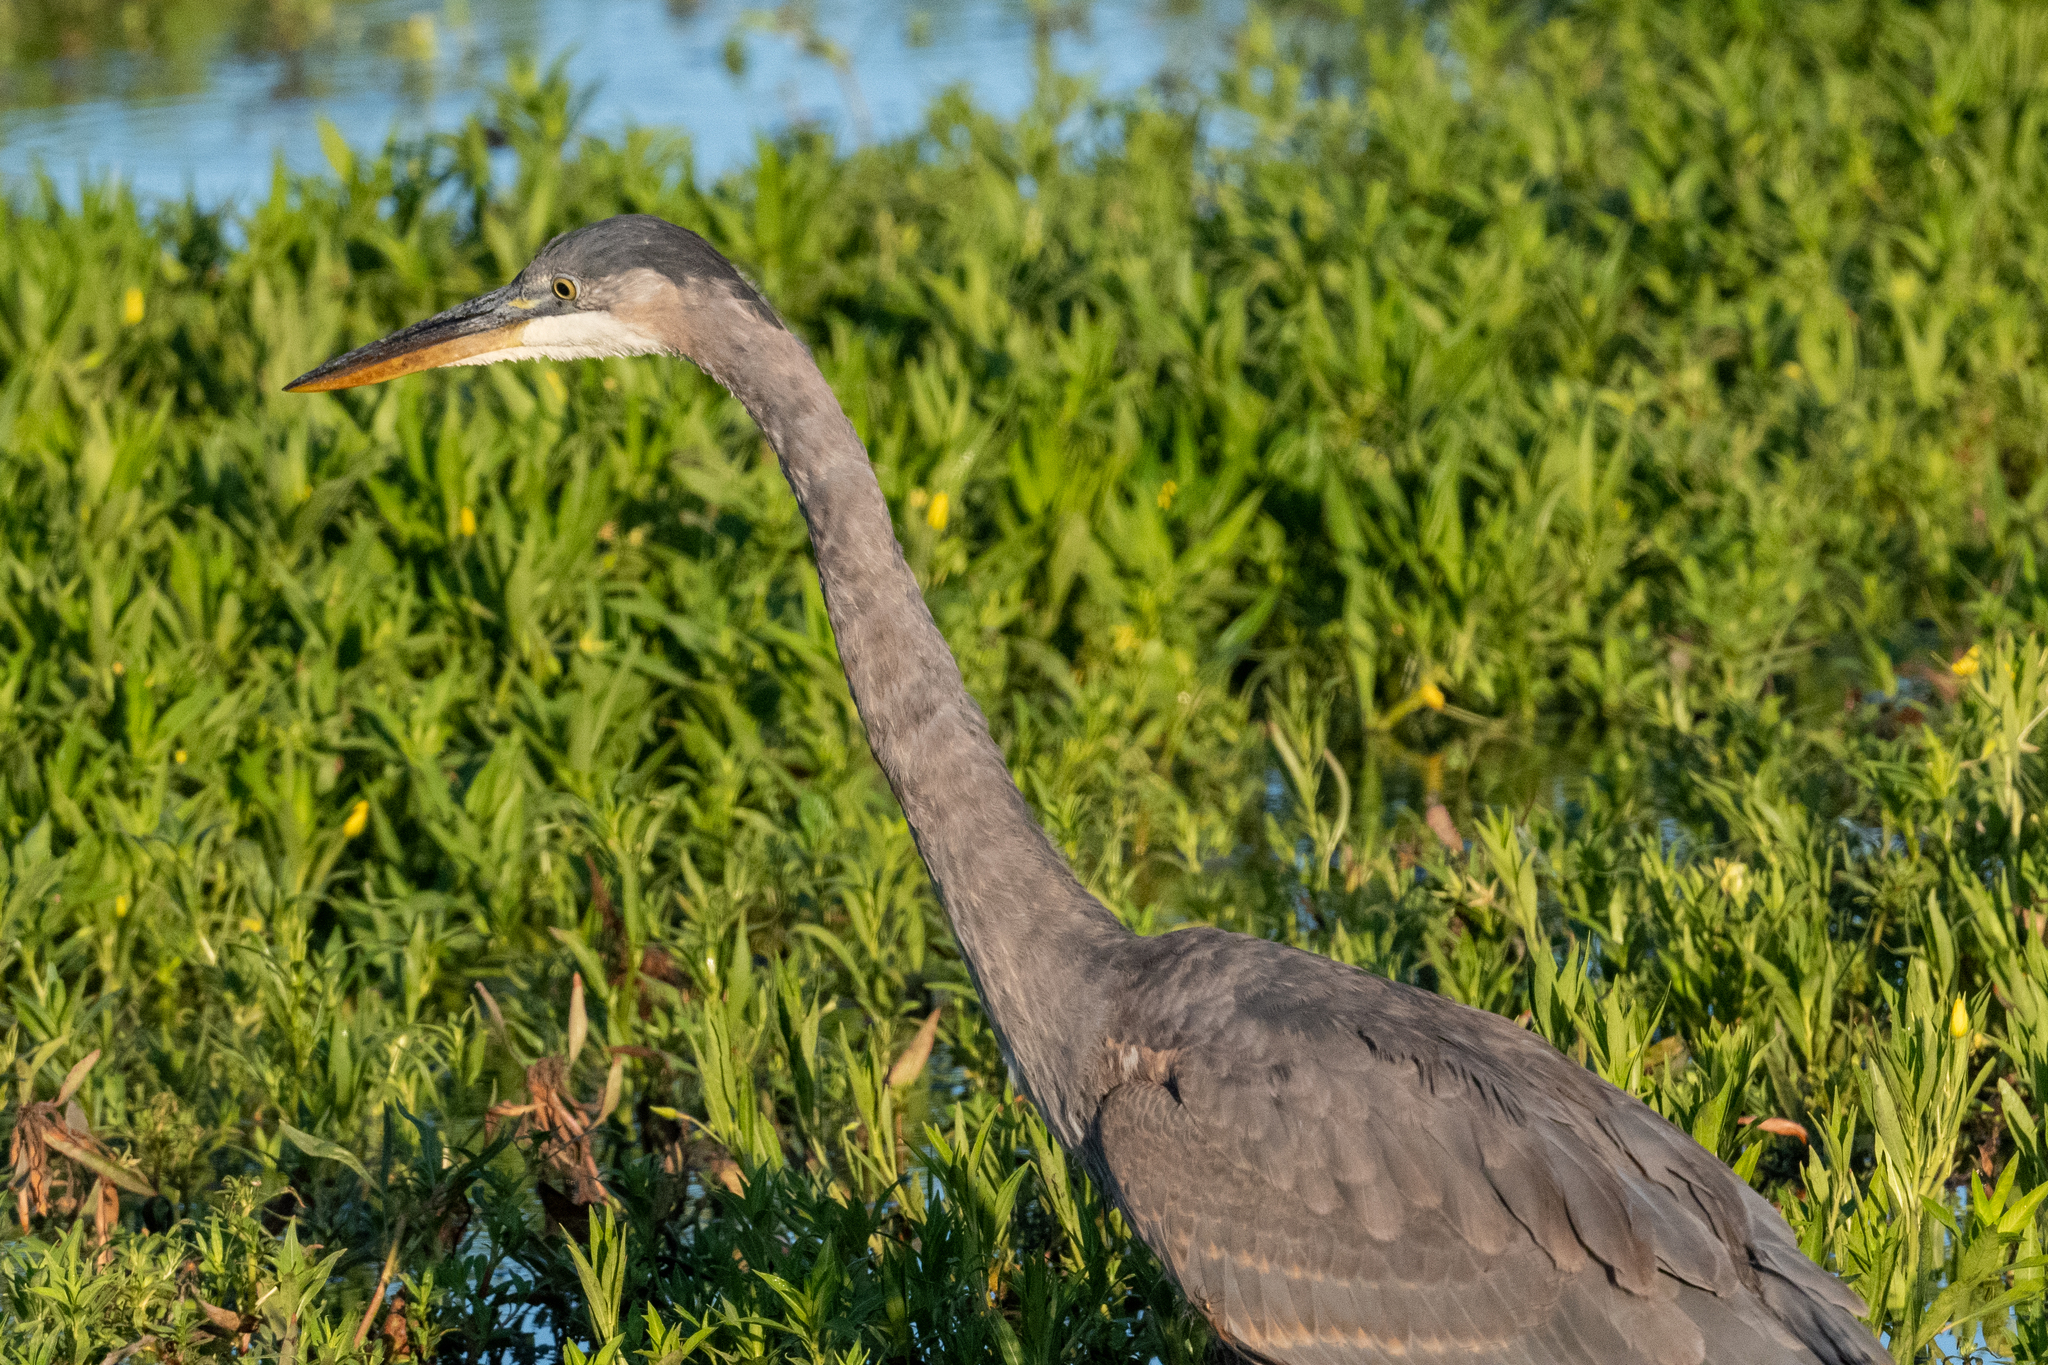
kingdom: Animalia
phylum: Chordata
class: Aves
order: Pelecaniformes
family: Ardeidae
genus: Ardea
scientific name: Ardea herodias
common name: Great blue heron
